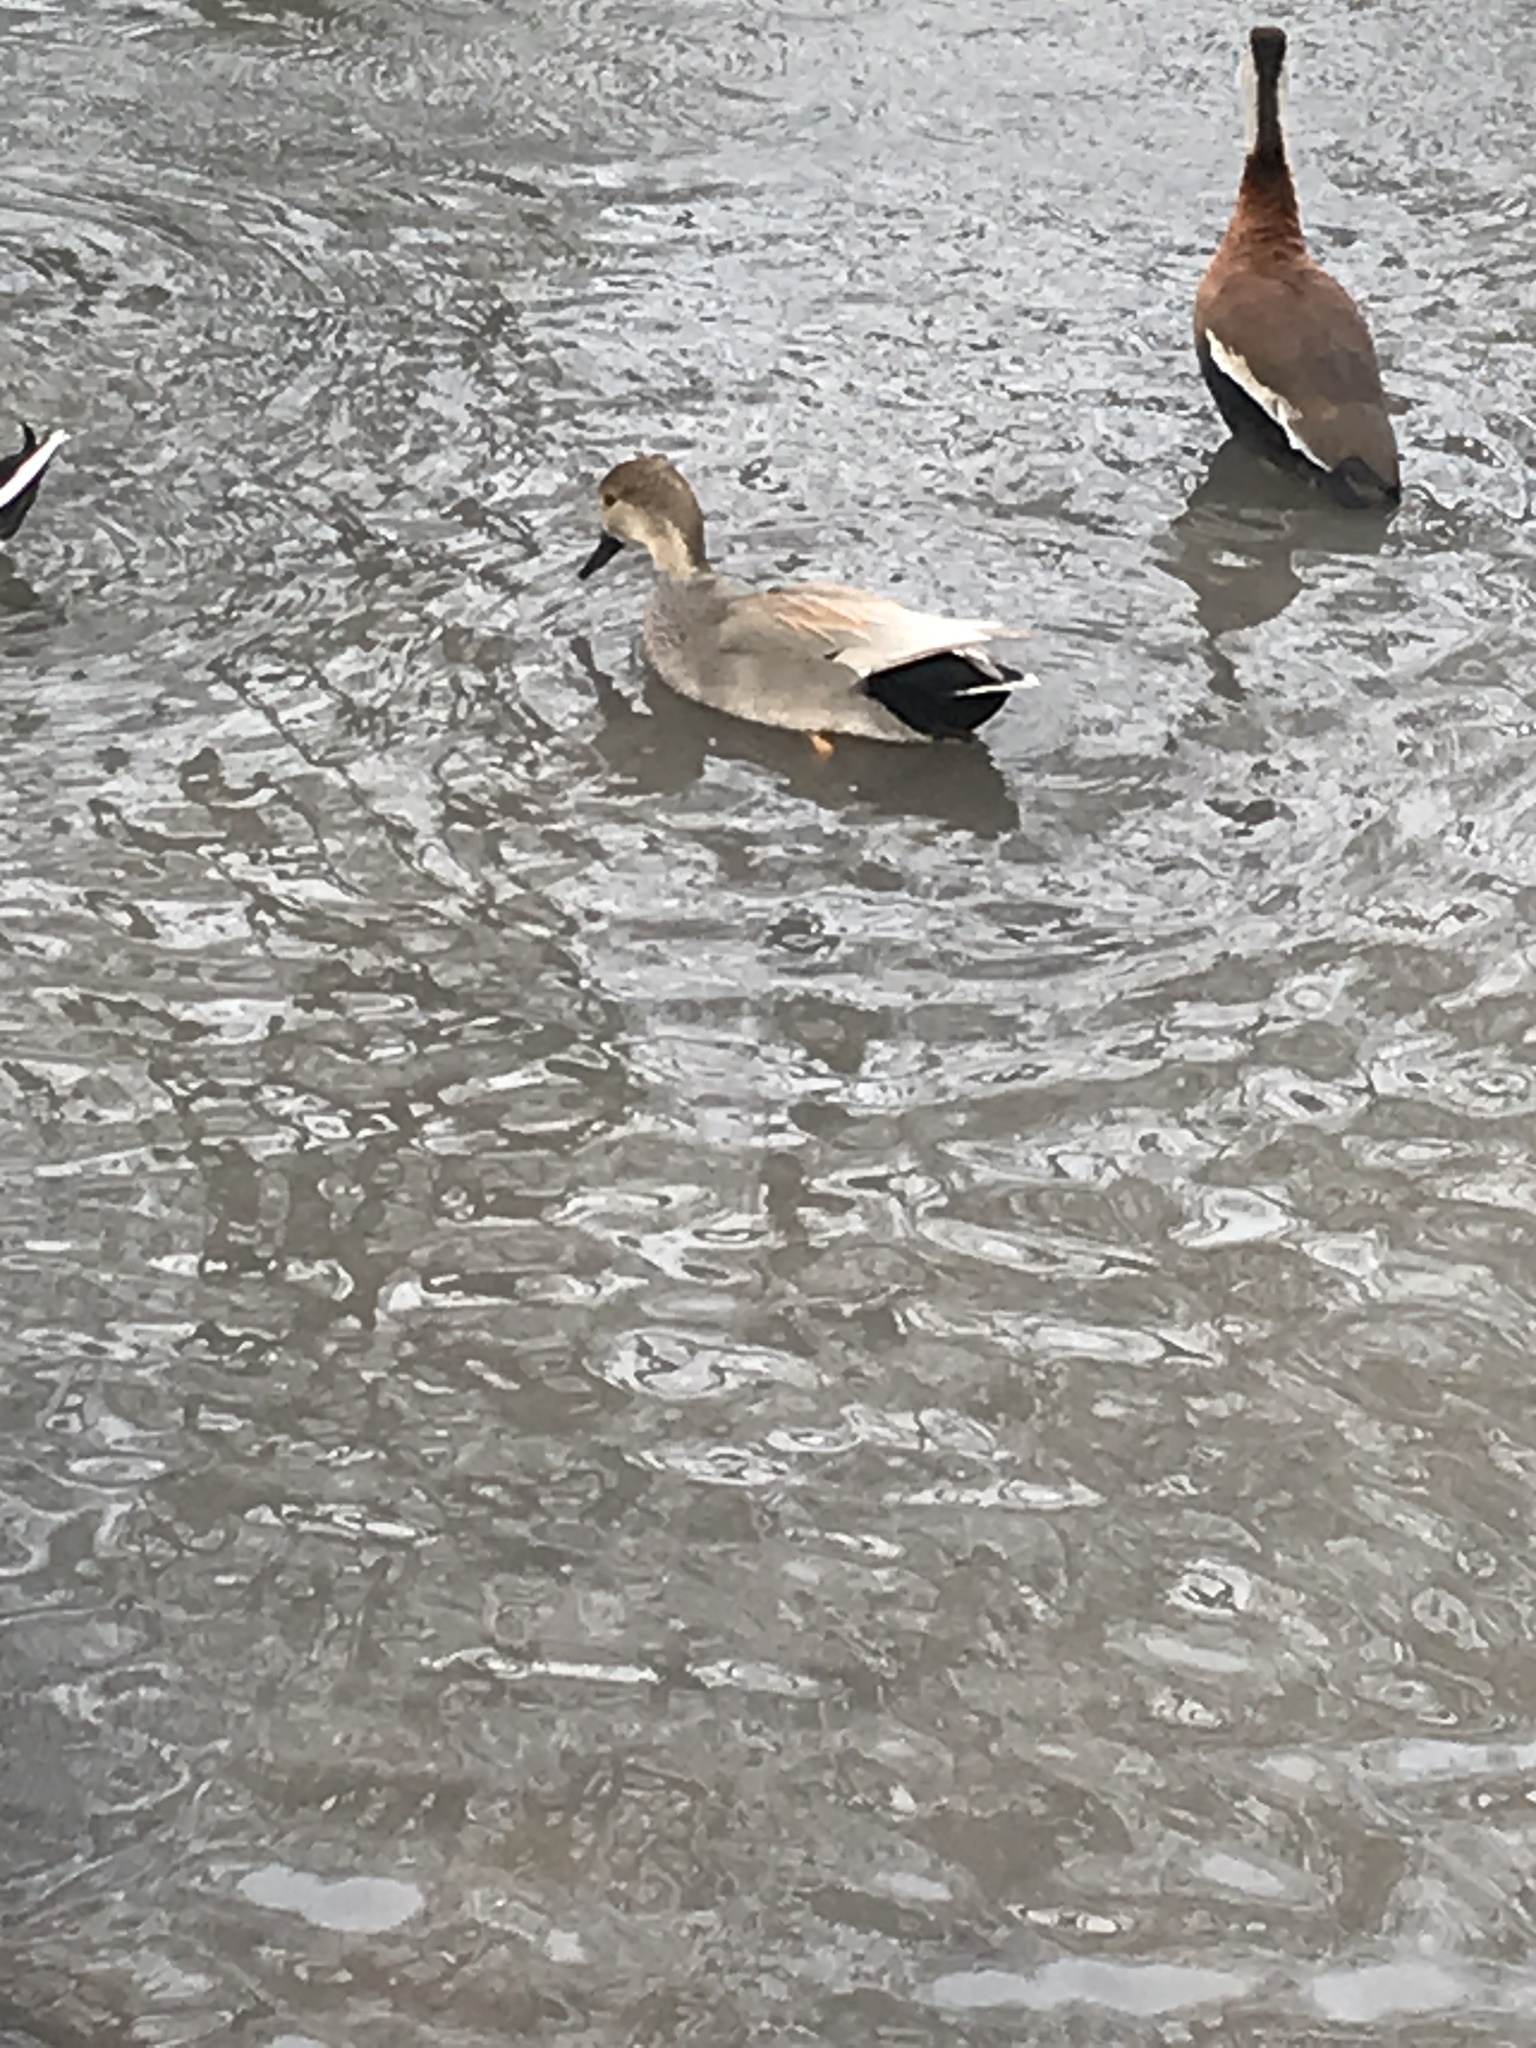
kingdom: Animalia
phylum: Chordata
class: Aves
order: Anseriformes
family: Anatidae
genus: Mareca
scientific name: Mareca strepera
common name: Gadwall
